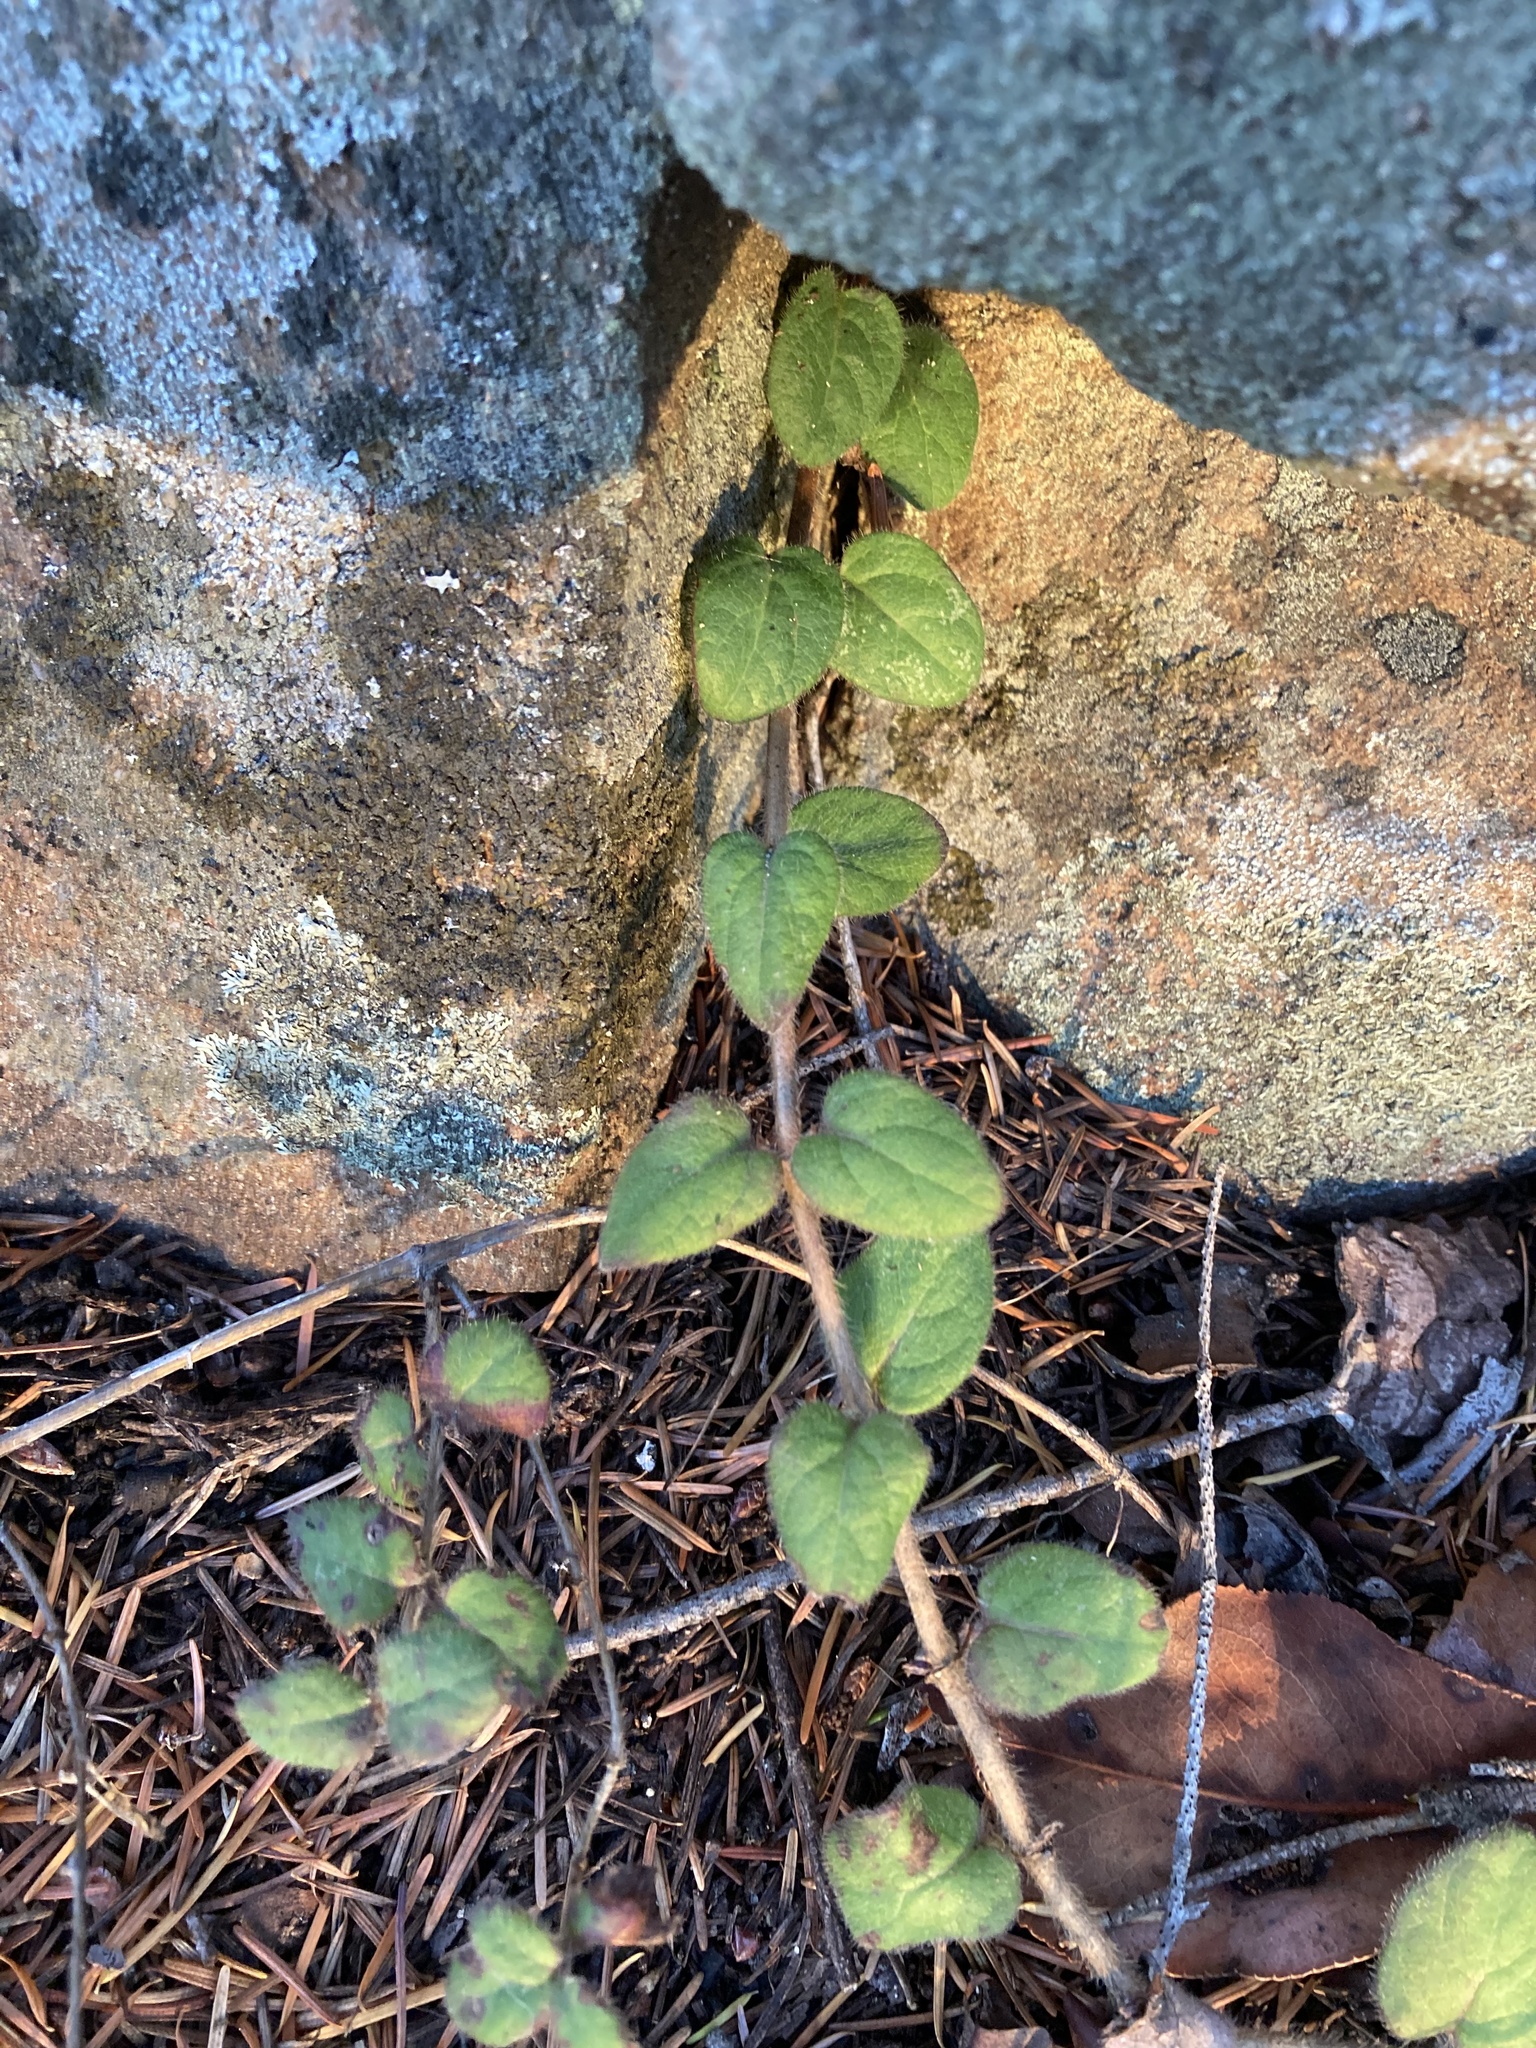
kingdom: Plantae
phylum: Tracheophyta
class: Magnoliopsida
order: Dipsacales
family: Caprifoliaceae
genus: Lonicera
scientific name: Lonicera hispidula
